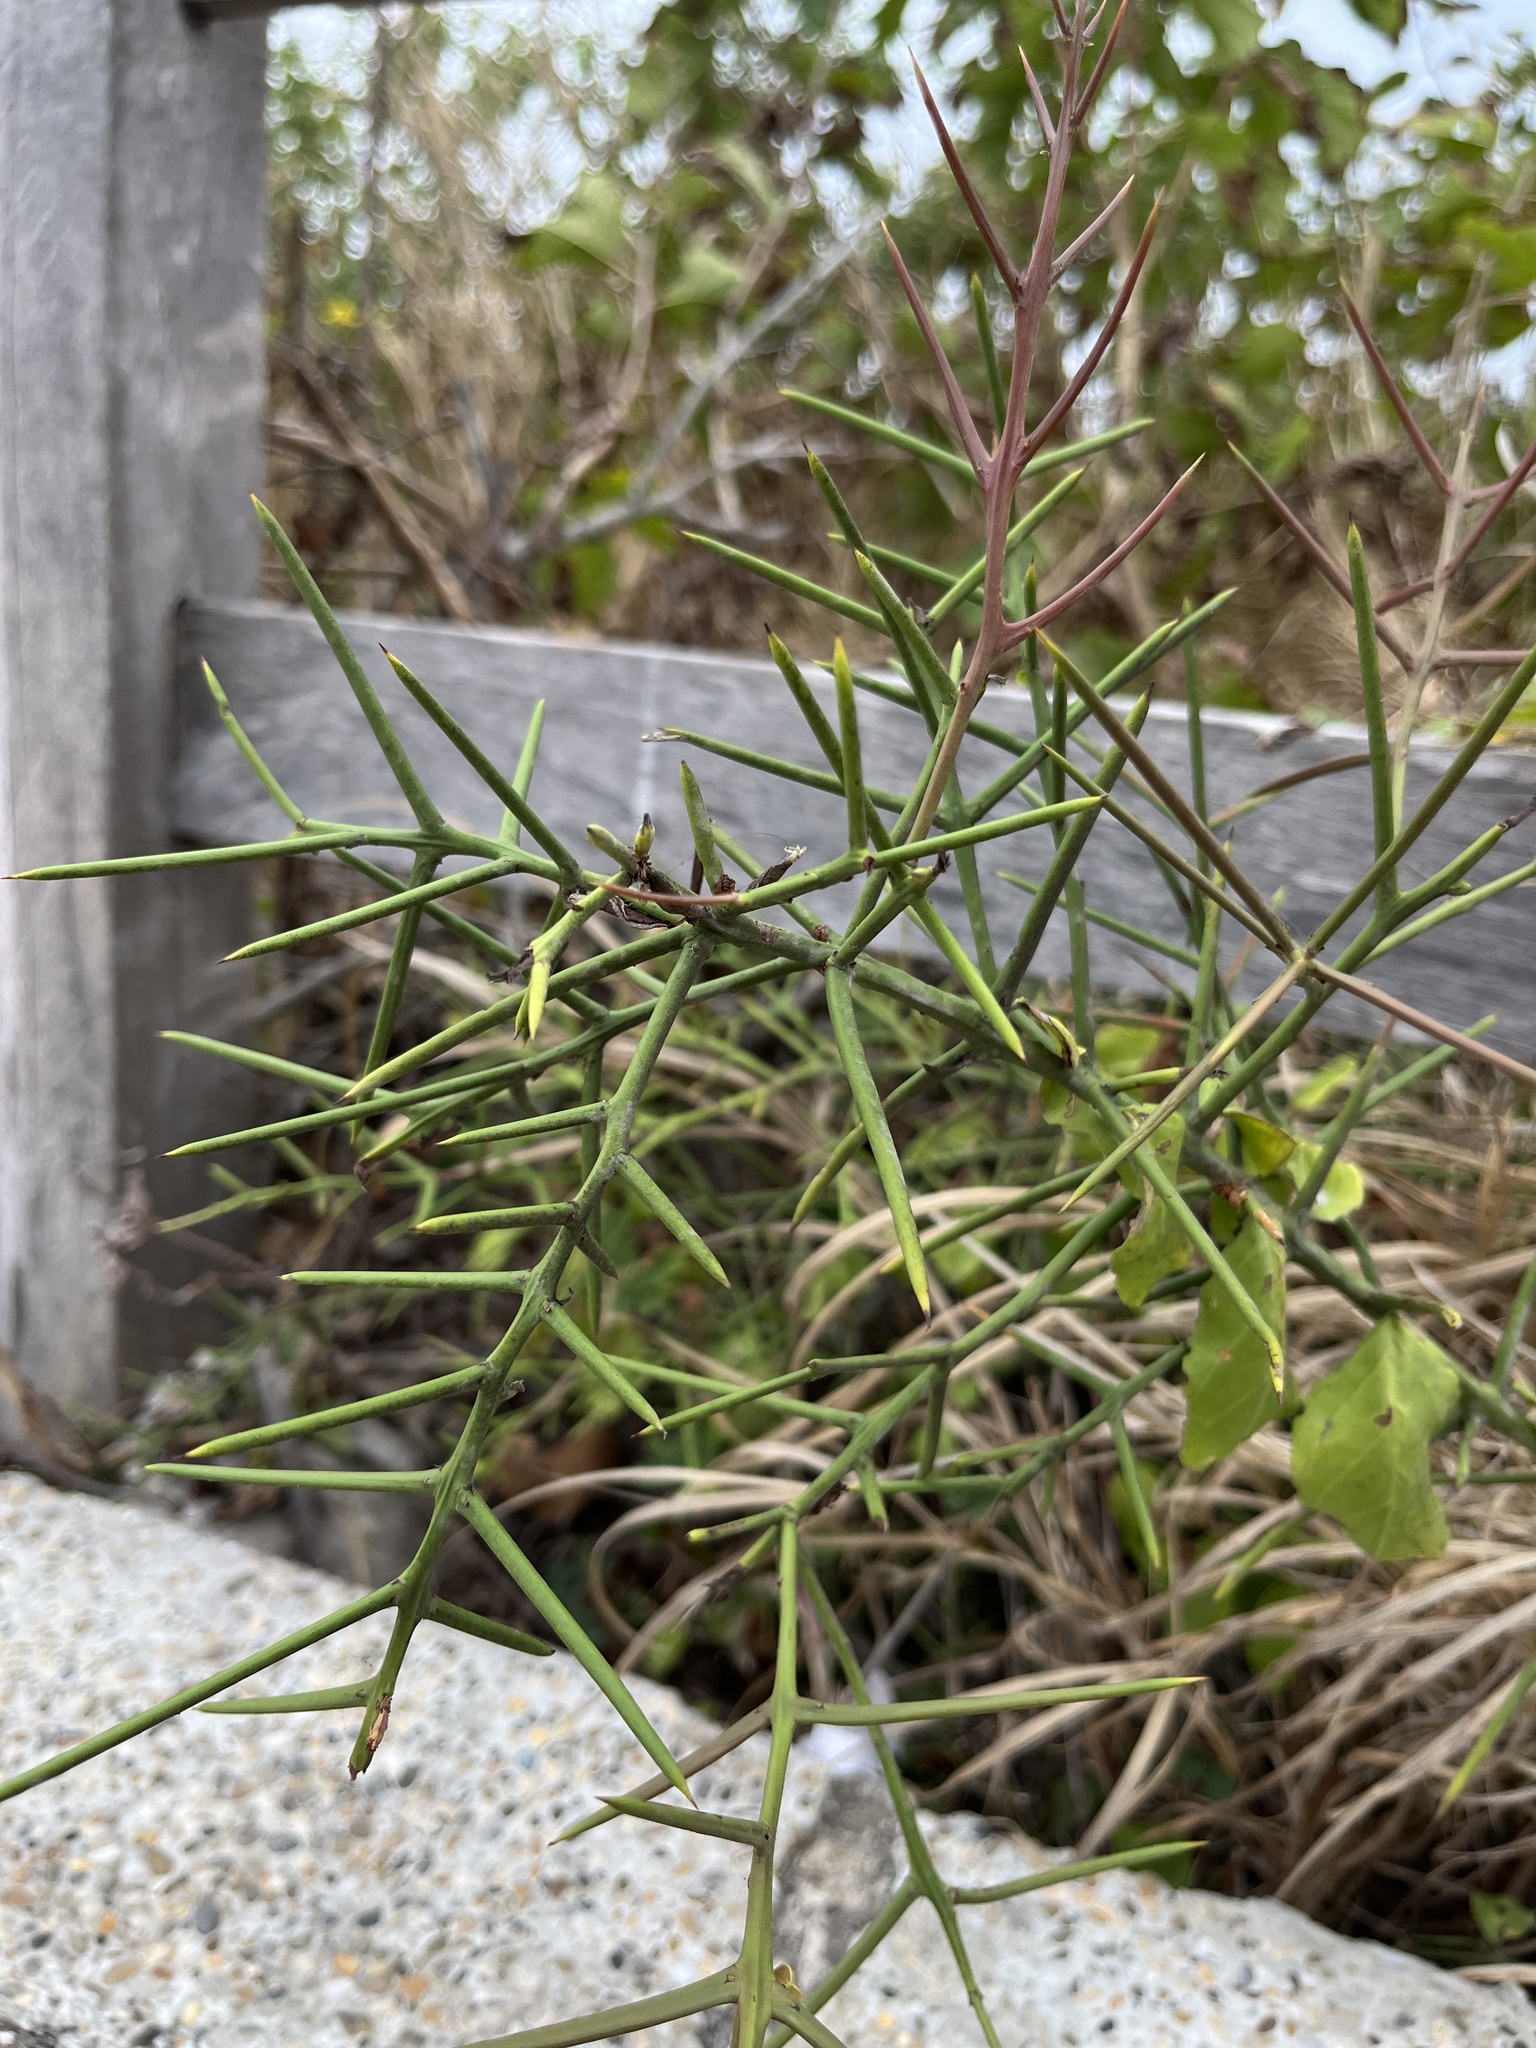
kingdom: Plantae
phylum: Tracheophyta
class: Magnoliopsida
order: Rosales
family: Rhamnaceae
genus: Scutia
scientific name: Scutia spicata
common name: Spiny bush
